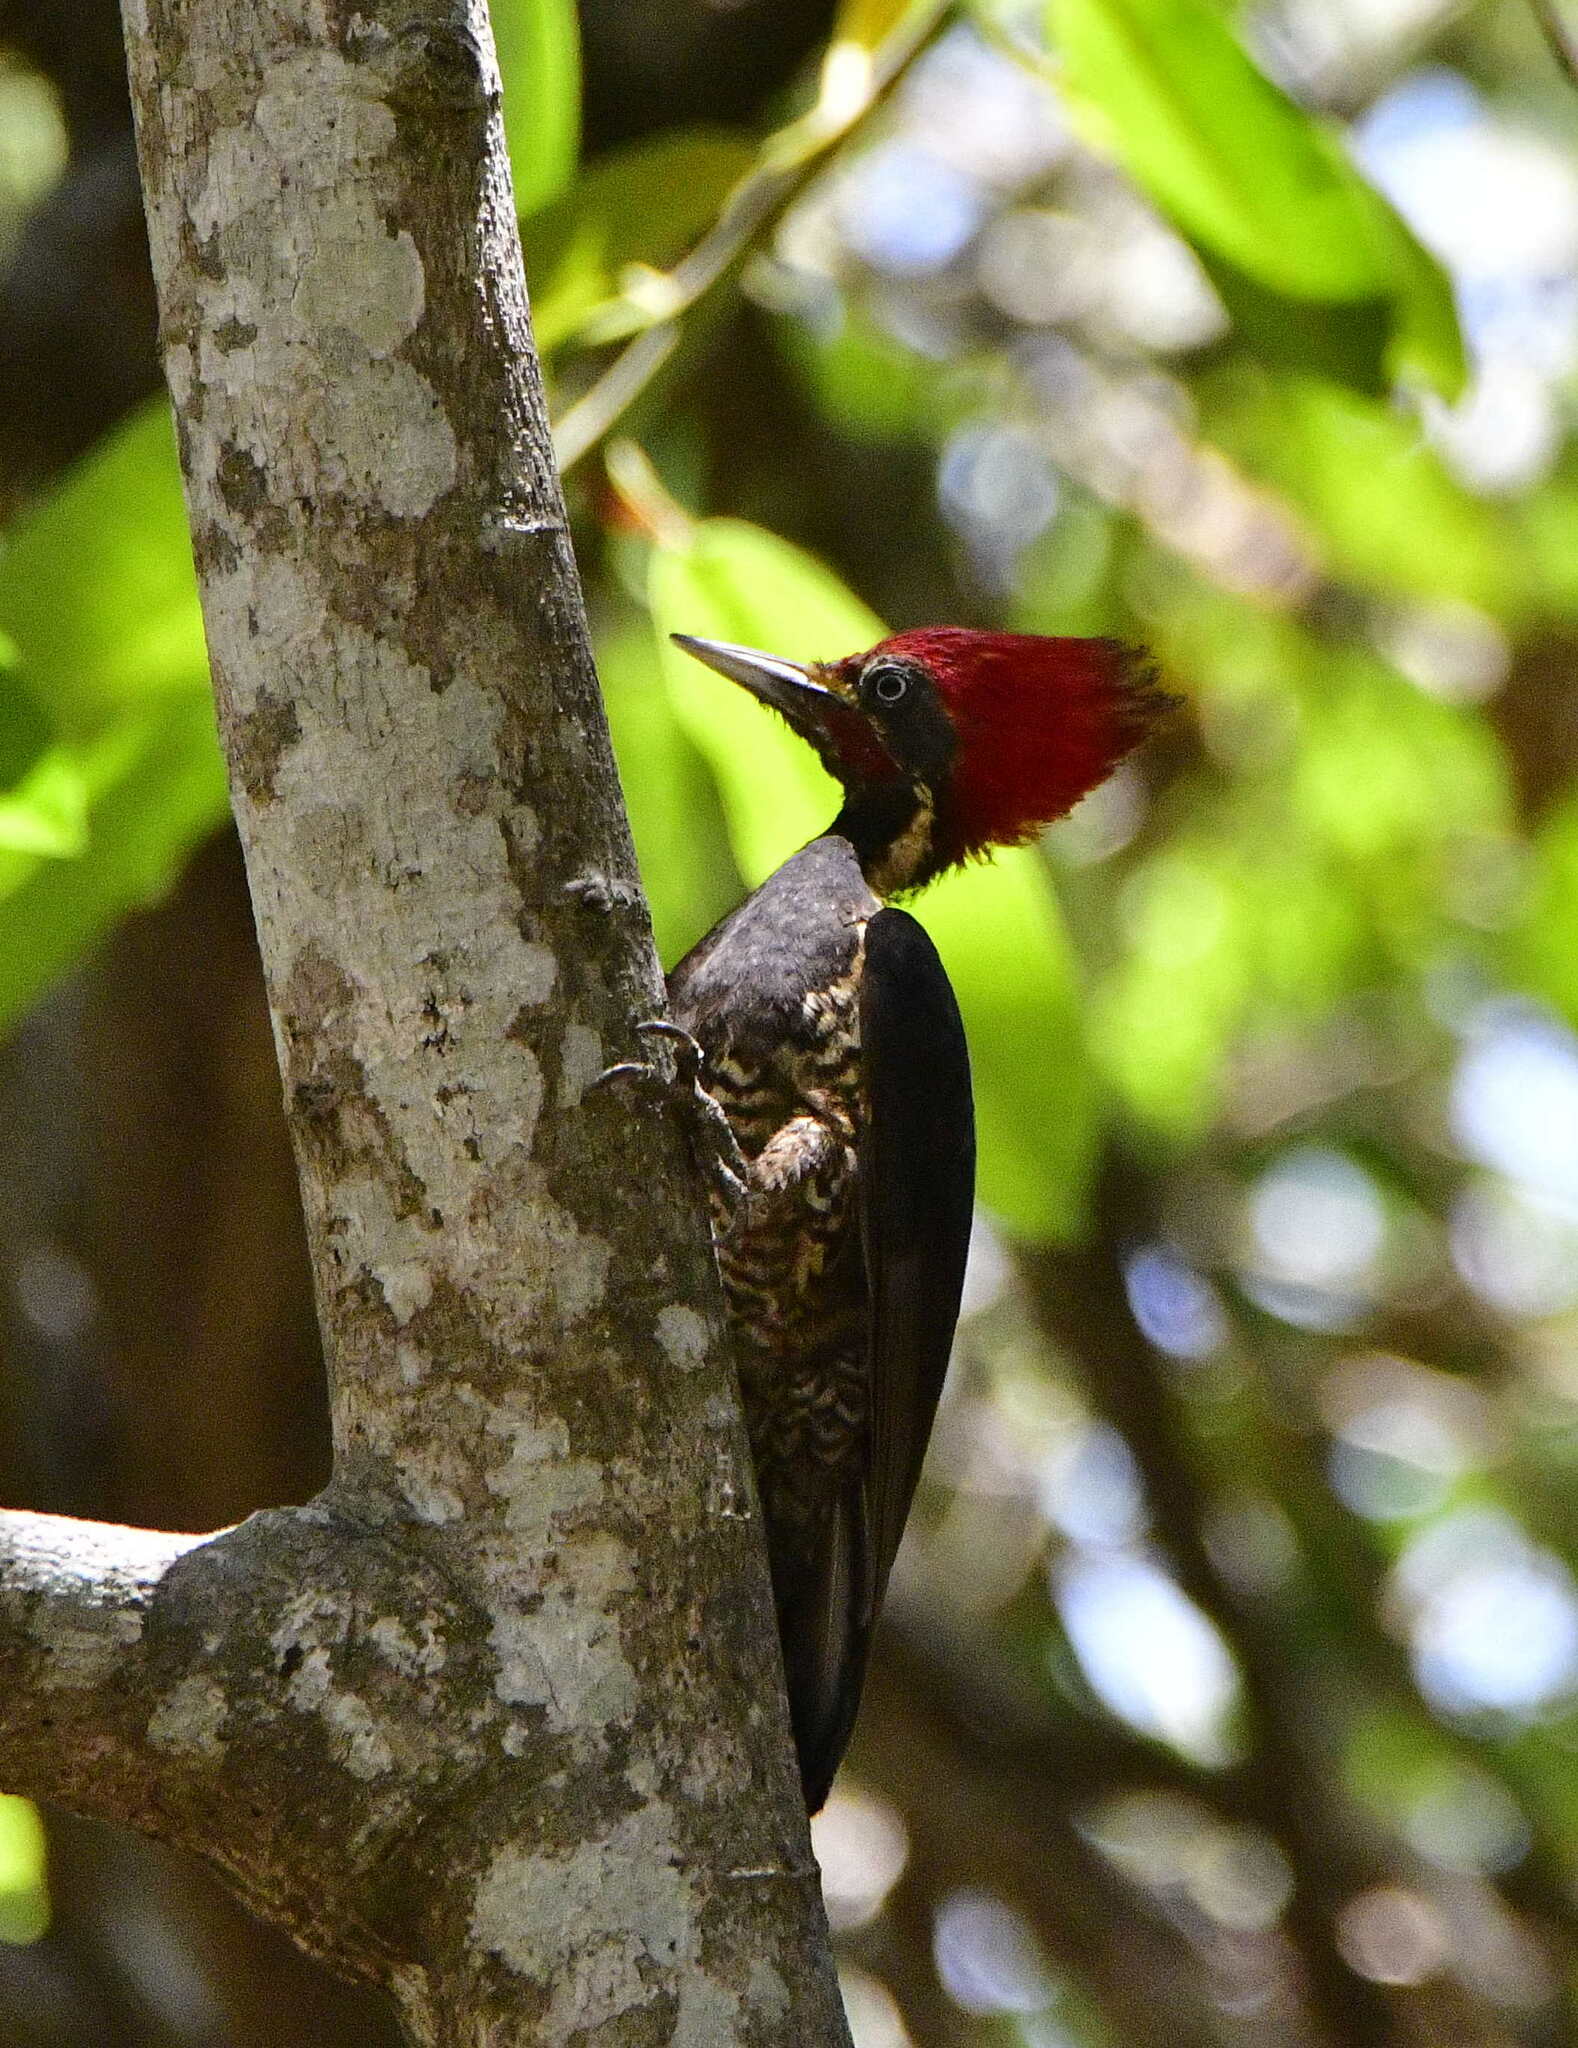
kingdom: Animalia
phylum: Chordata
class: Aves
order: Piciformes
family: Picidae
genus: Dryocopus
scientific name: Dryocopus lineatus
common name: Lineated woodpecker
